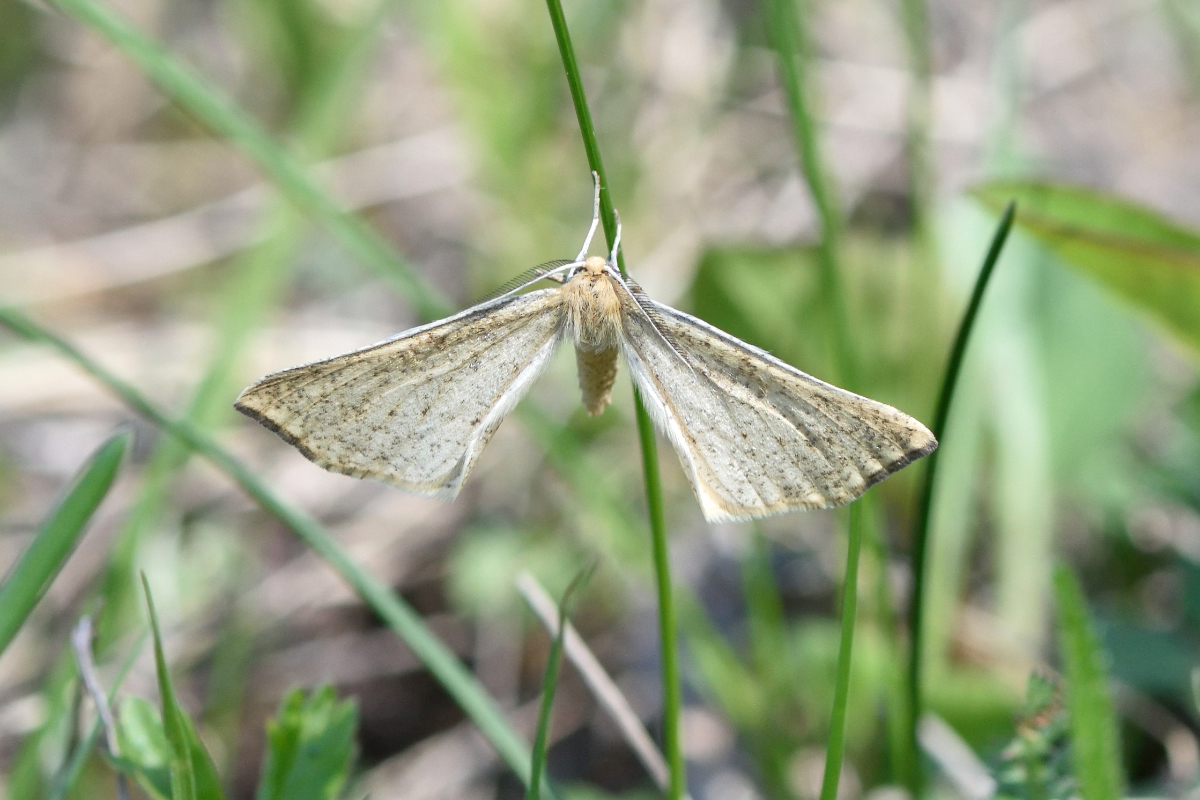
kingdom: Animalia
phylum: Arthropoda
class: Insecta
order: Lepidoptera
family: Geometridae
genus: Hypoxystis
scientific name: Hypoxystis pluviaria
